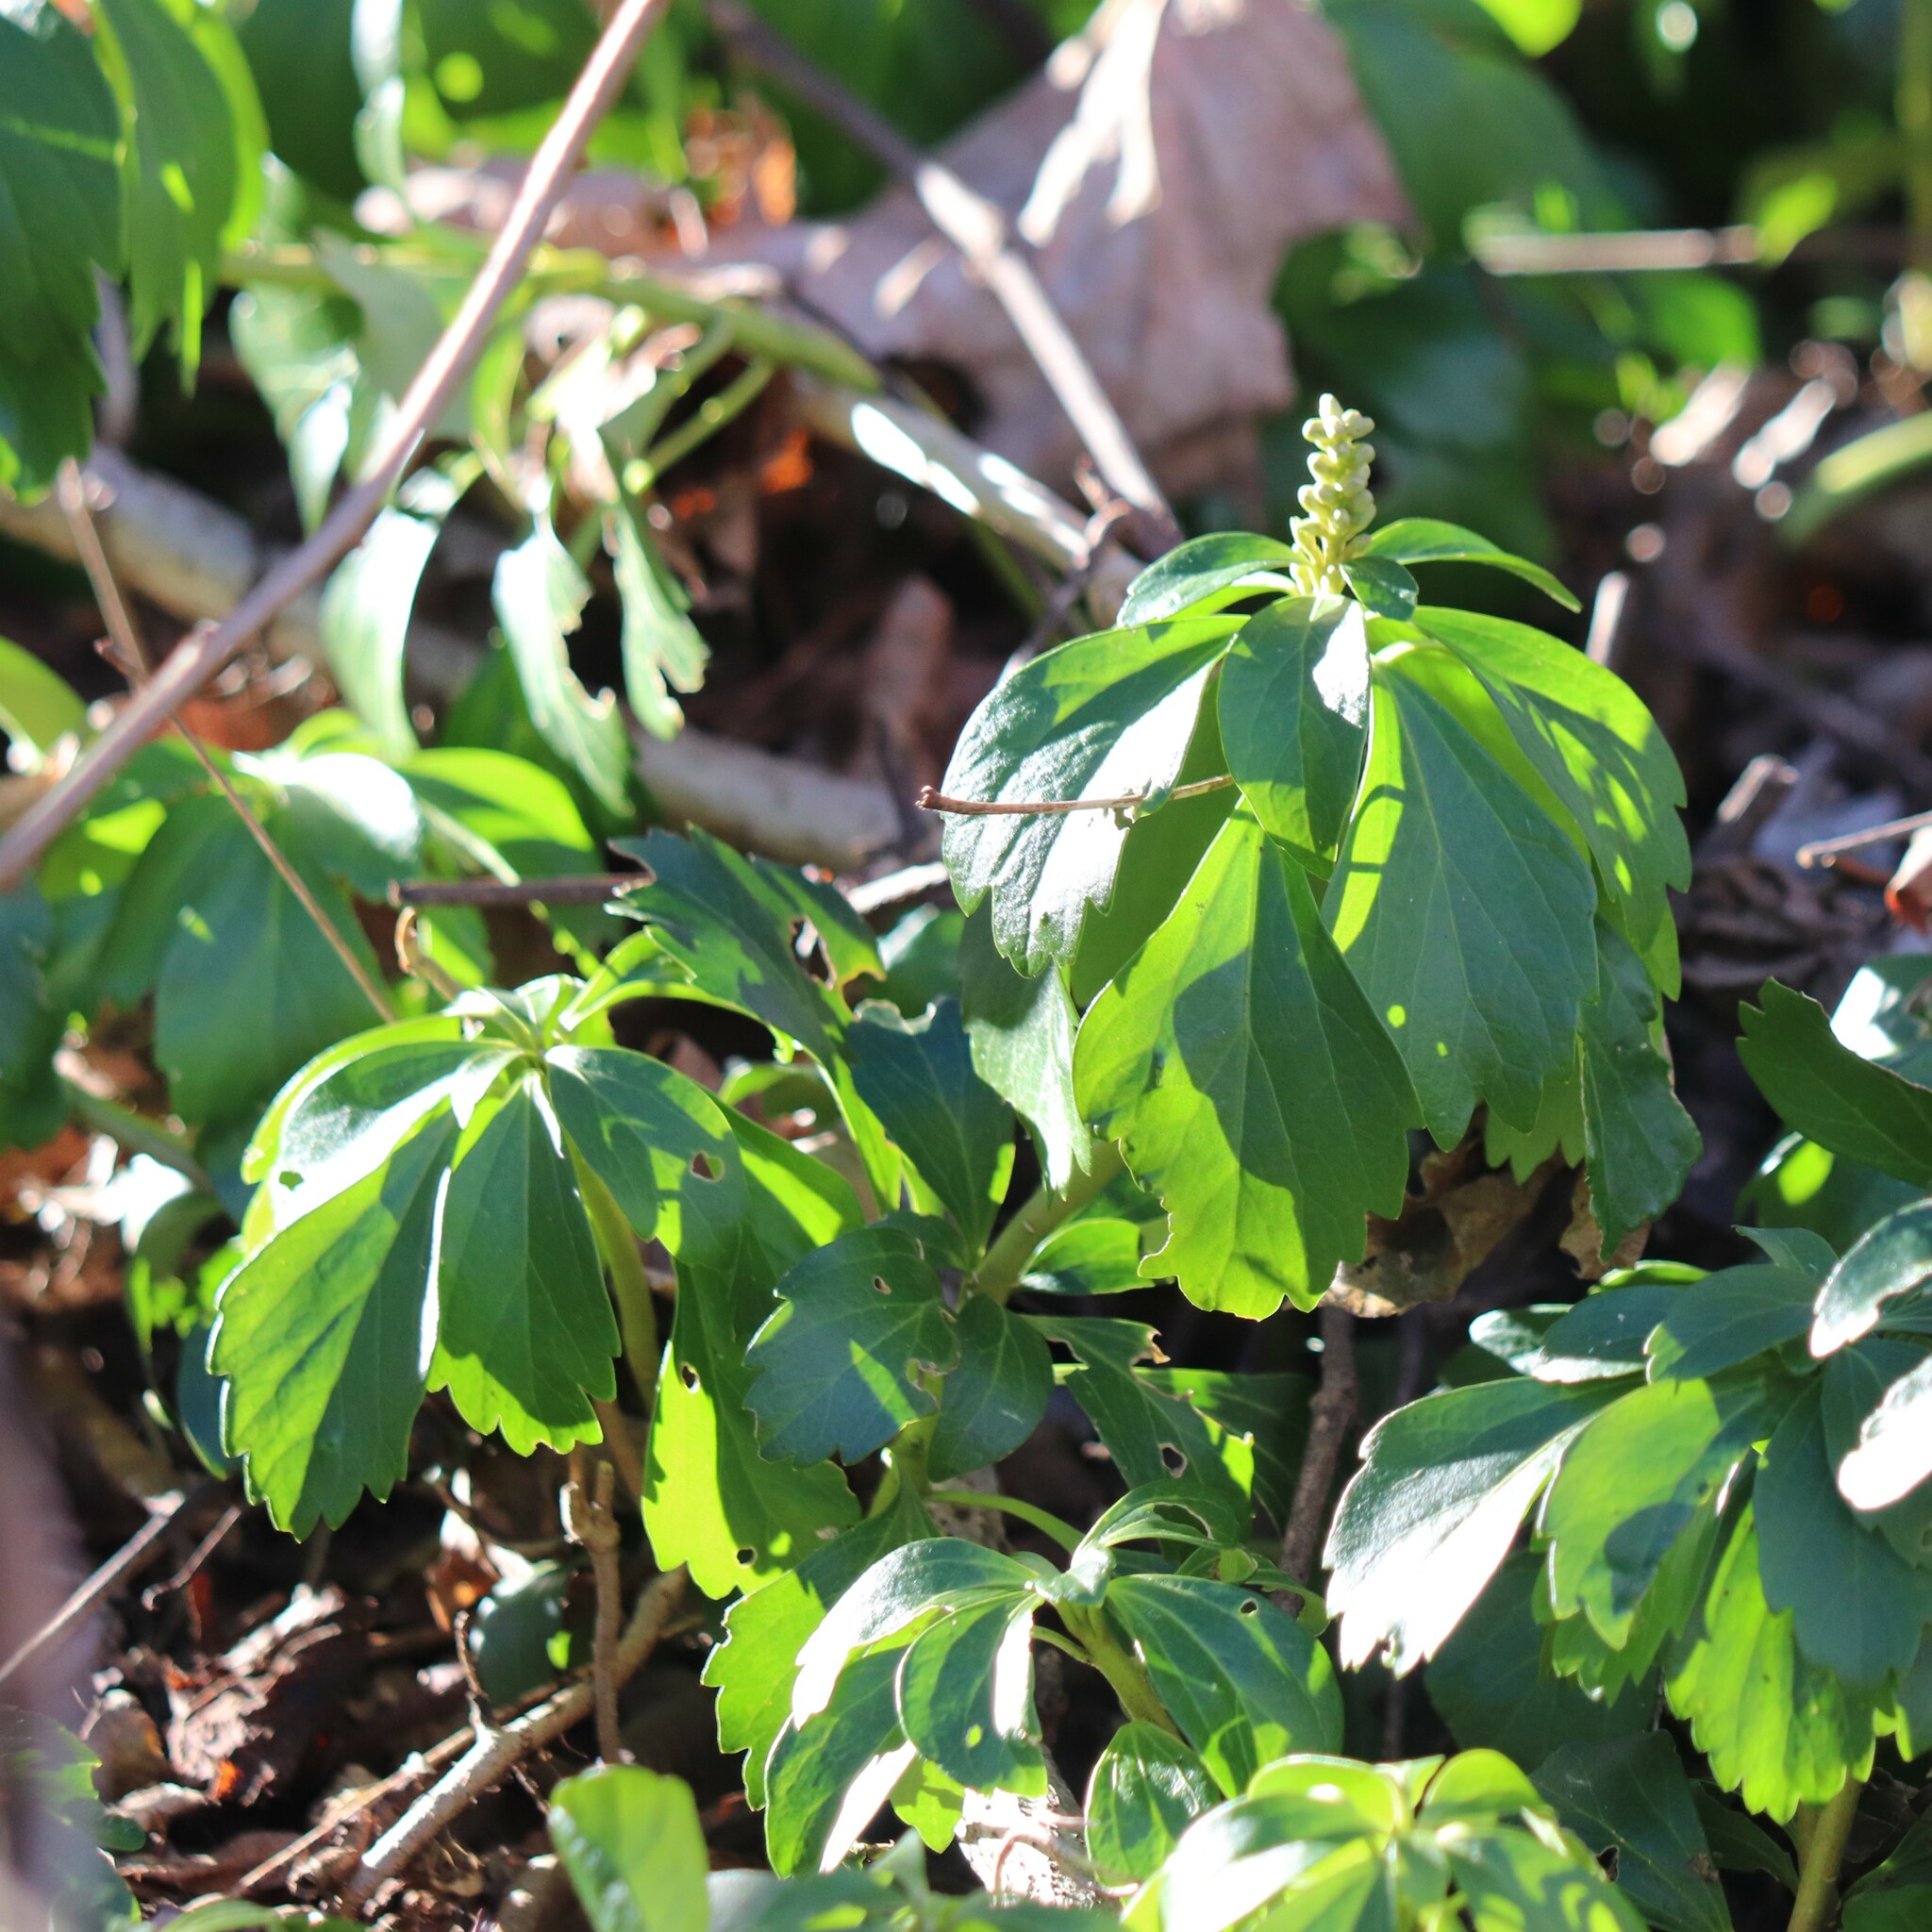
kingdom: Plantae
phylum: Tracheophyta
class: Magnoliopsida
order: Buxales
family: Buxaceae
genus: Pachysandra
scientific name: Pachysandra terminalis
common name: Japanese pachysandra
